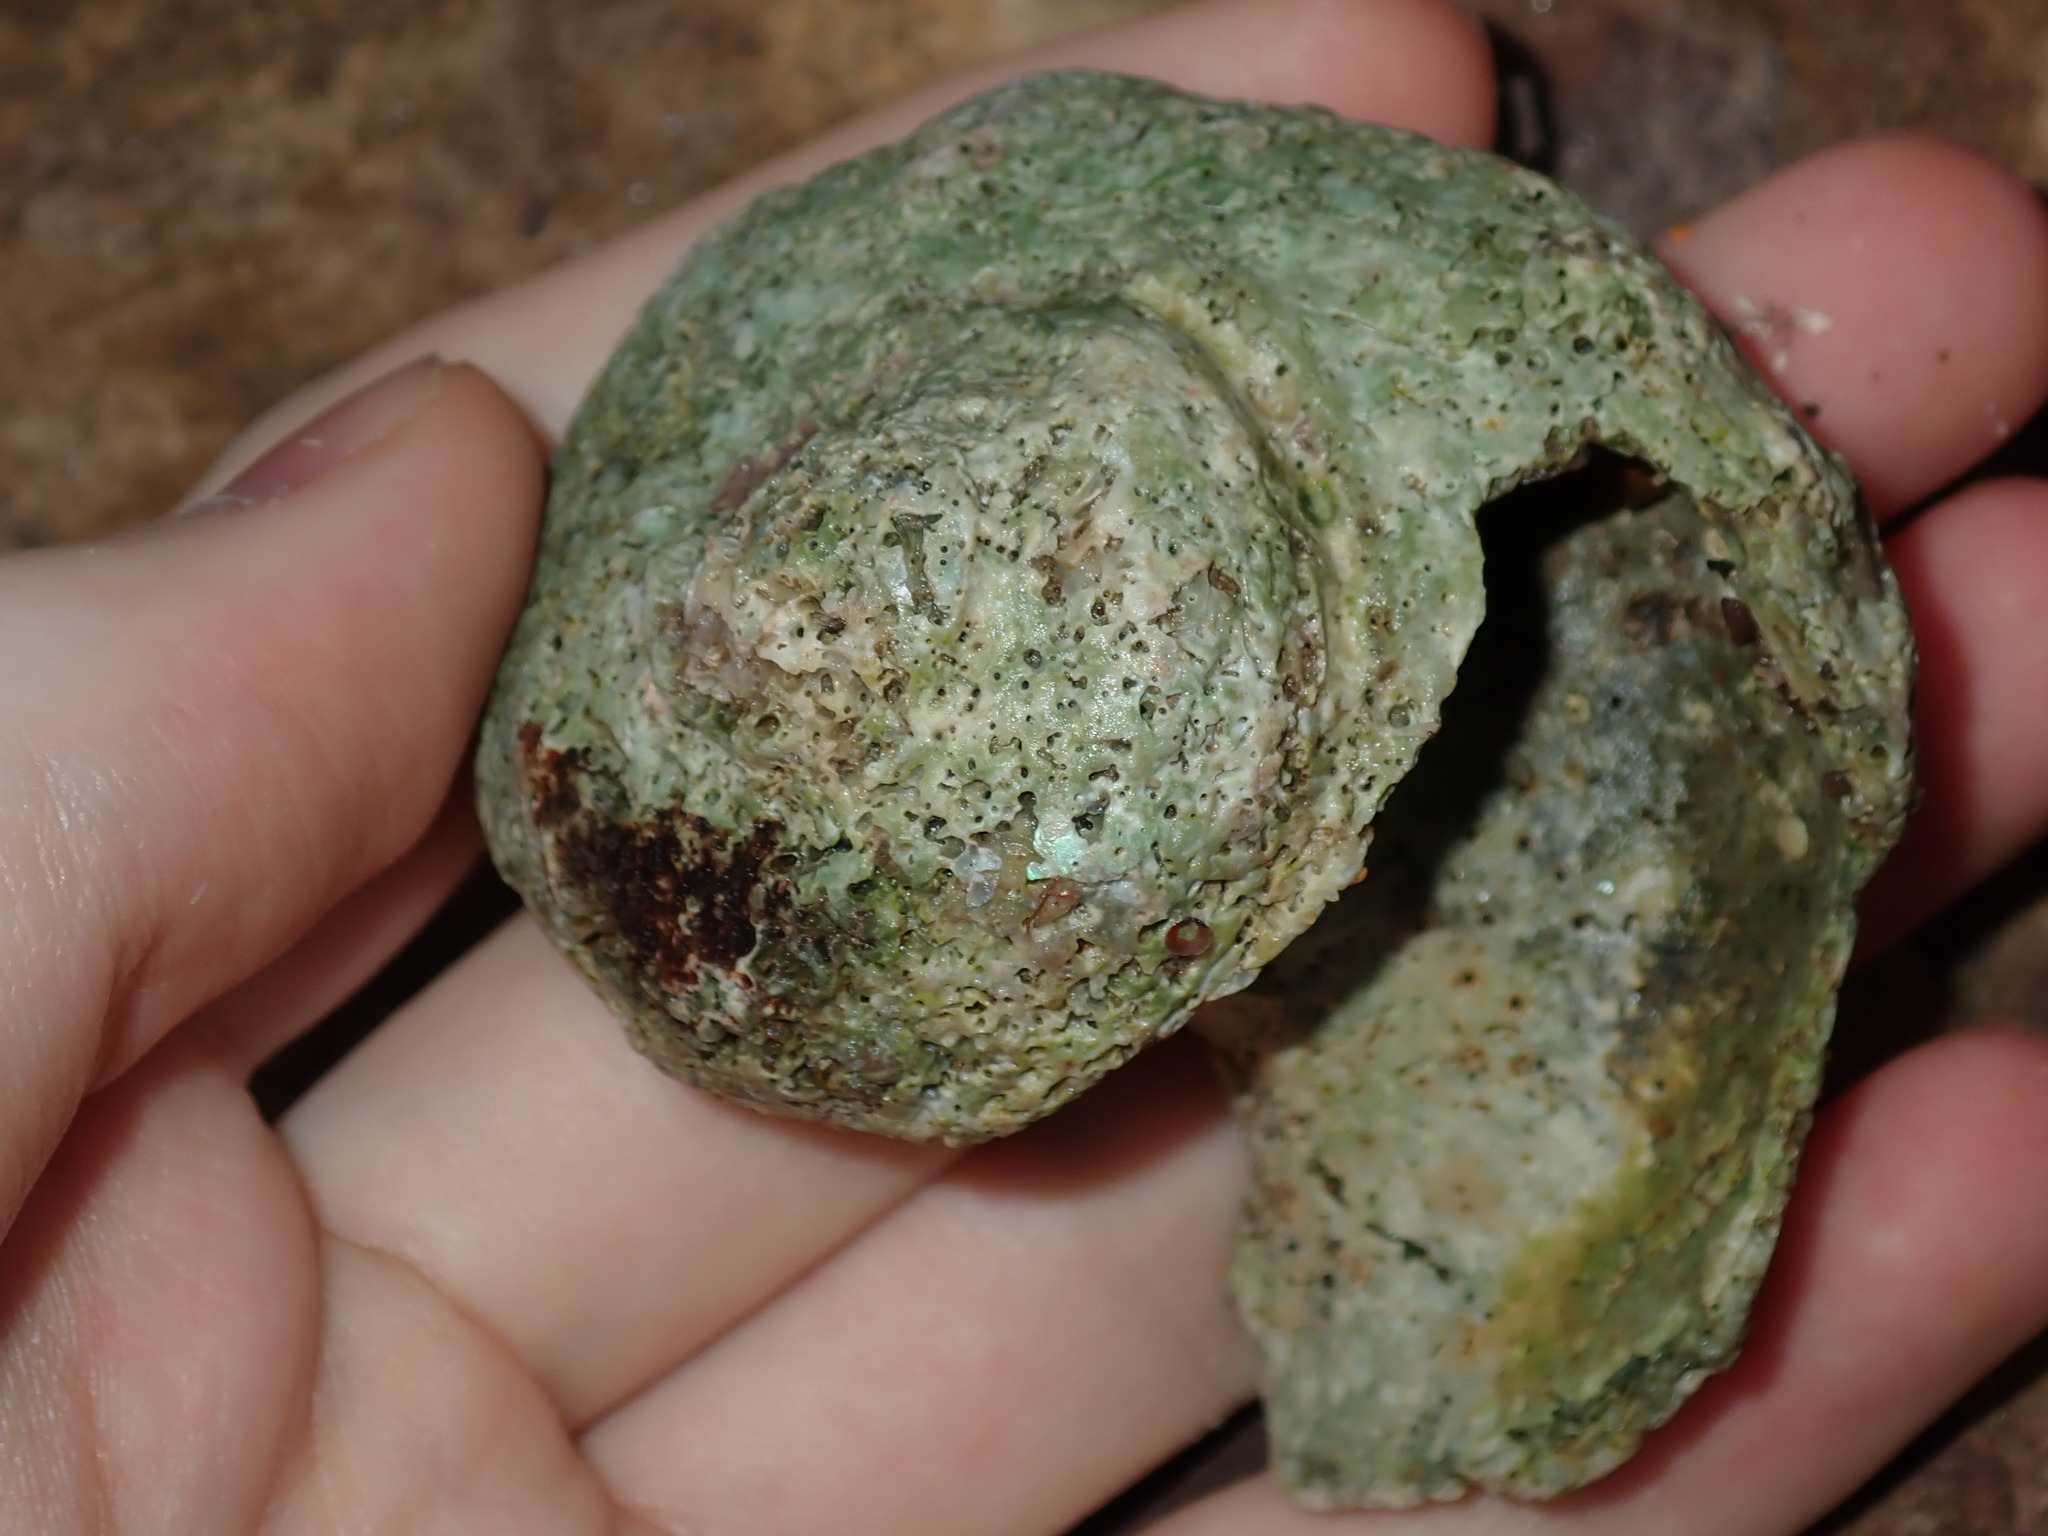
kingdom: Animalia
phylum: Mollusca
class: Gastropoda
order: Trochida
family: Turbinidae
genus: Turbo
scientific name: Turbo militaris
